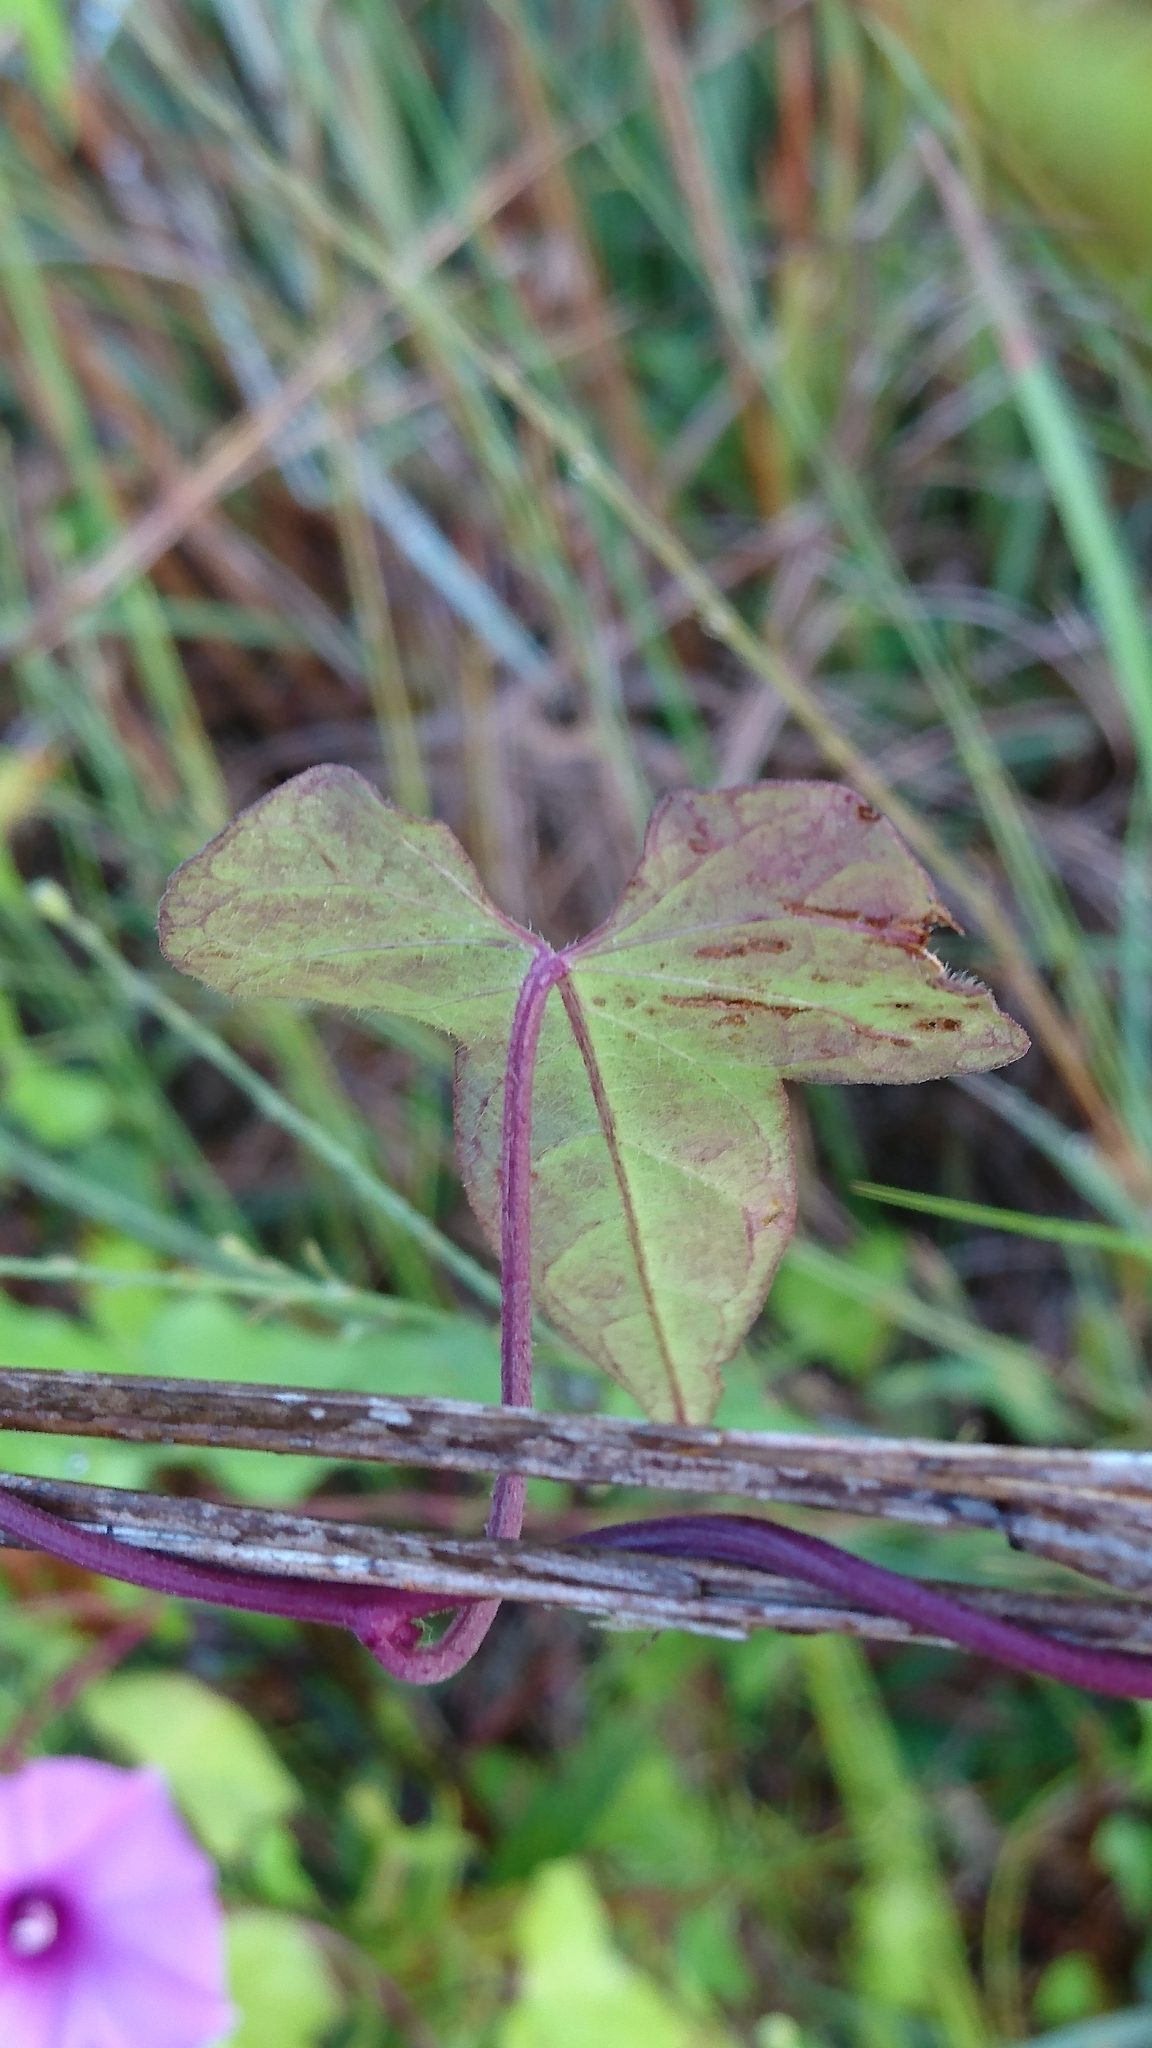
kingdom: Plantae
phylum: Tracheophyta
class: Magnoliopsida
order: Solanales
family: Convolvulaceae
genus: Ipomoea
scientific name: Ipomoea cordatotriloba
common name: Cotton morning glory
